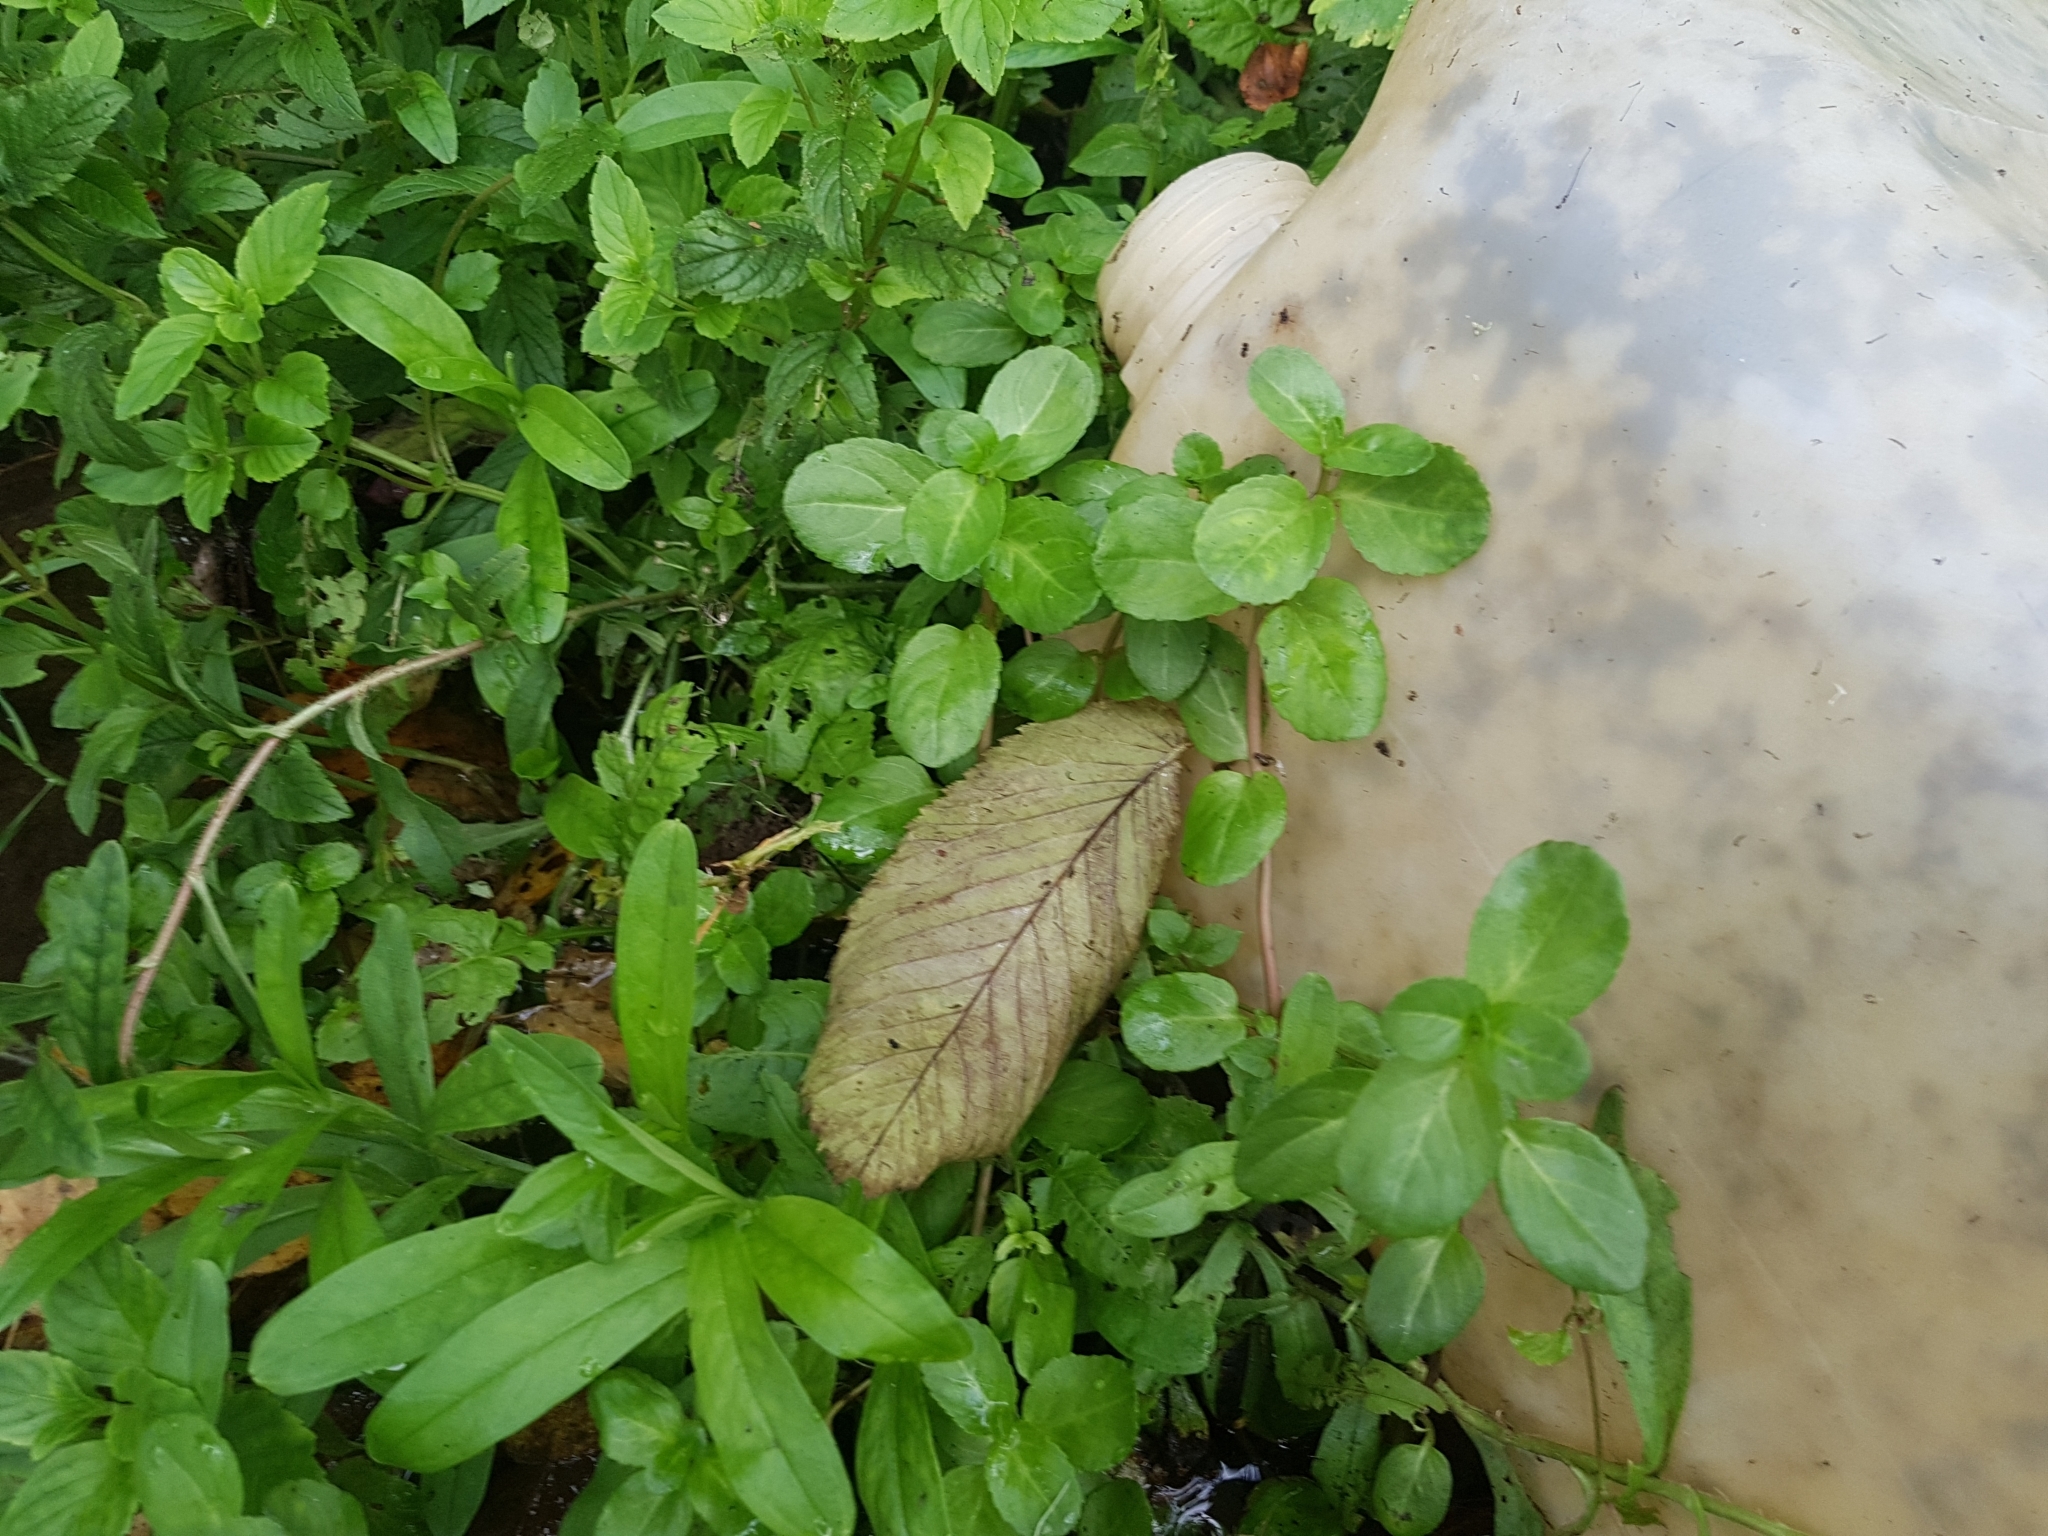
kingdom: Plantae
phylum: Tracheophyta
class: Magnoliopsida
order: Lamiales
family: Plantaginaceae
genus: Veronica
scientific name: Veronica beccabunga
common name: Brooklime
